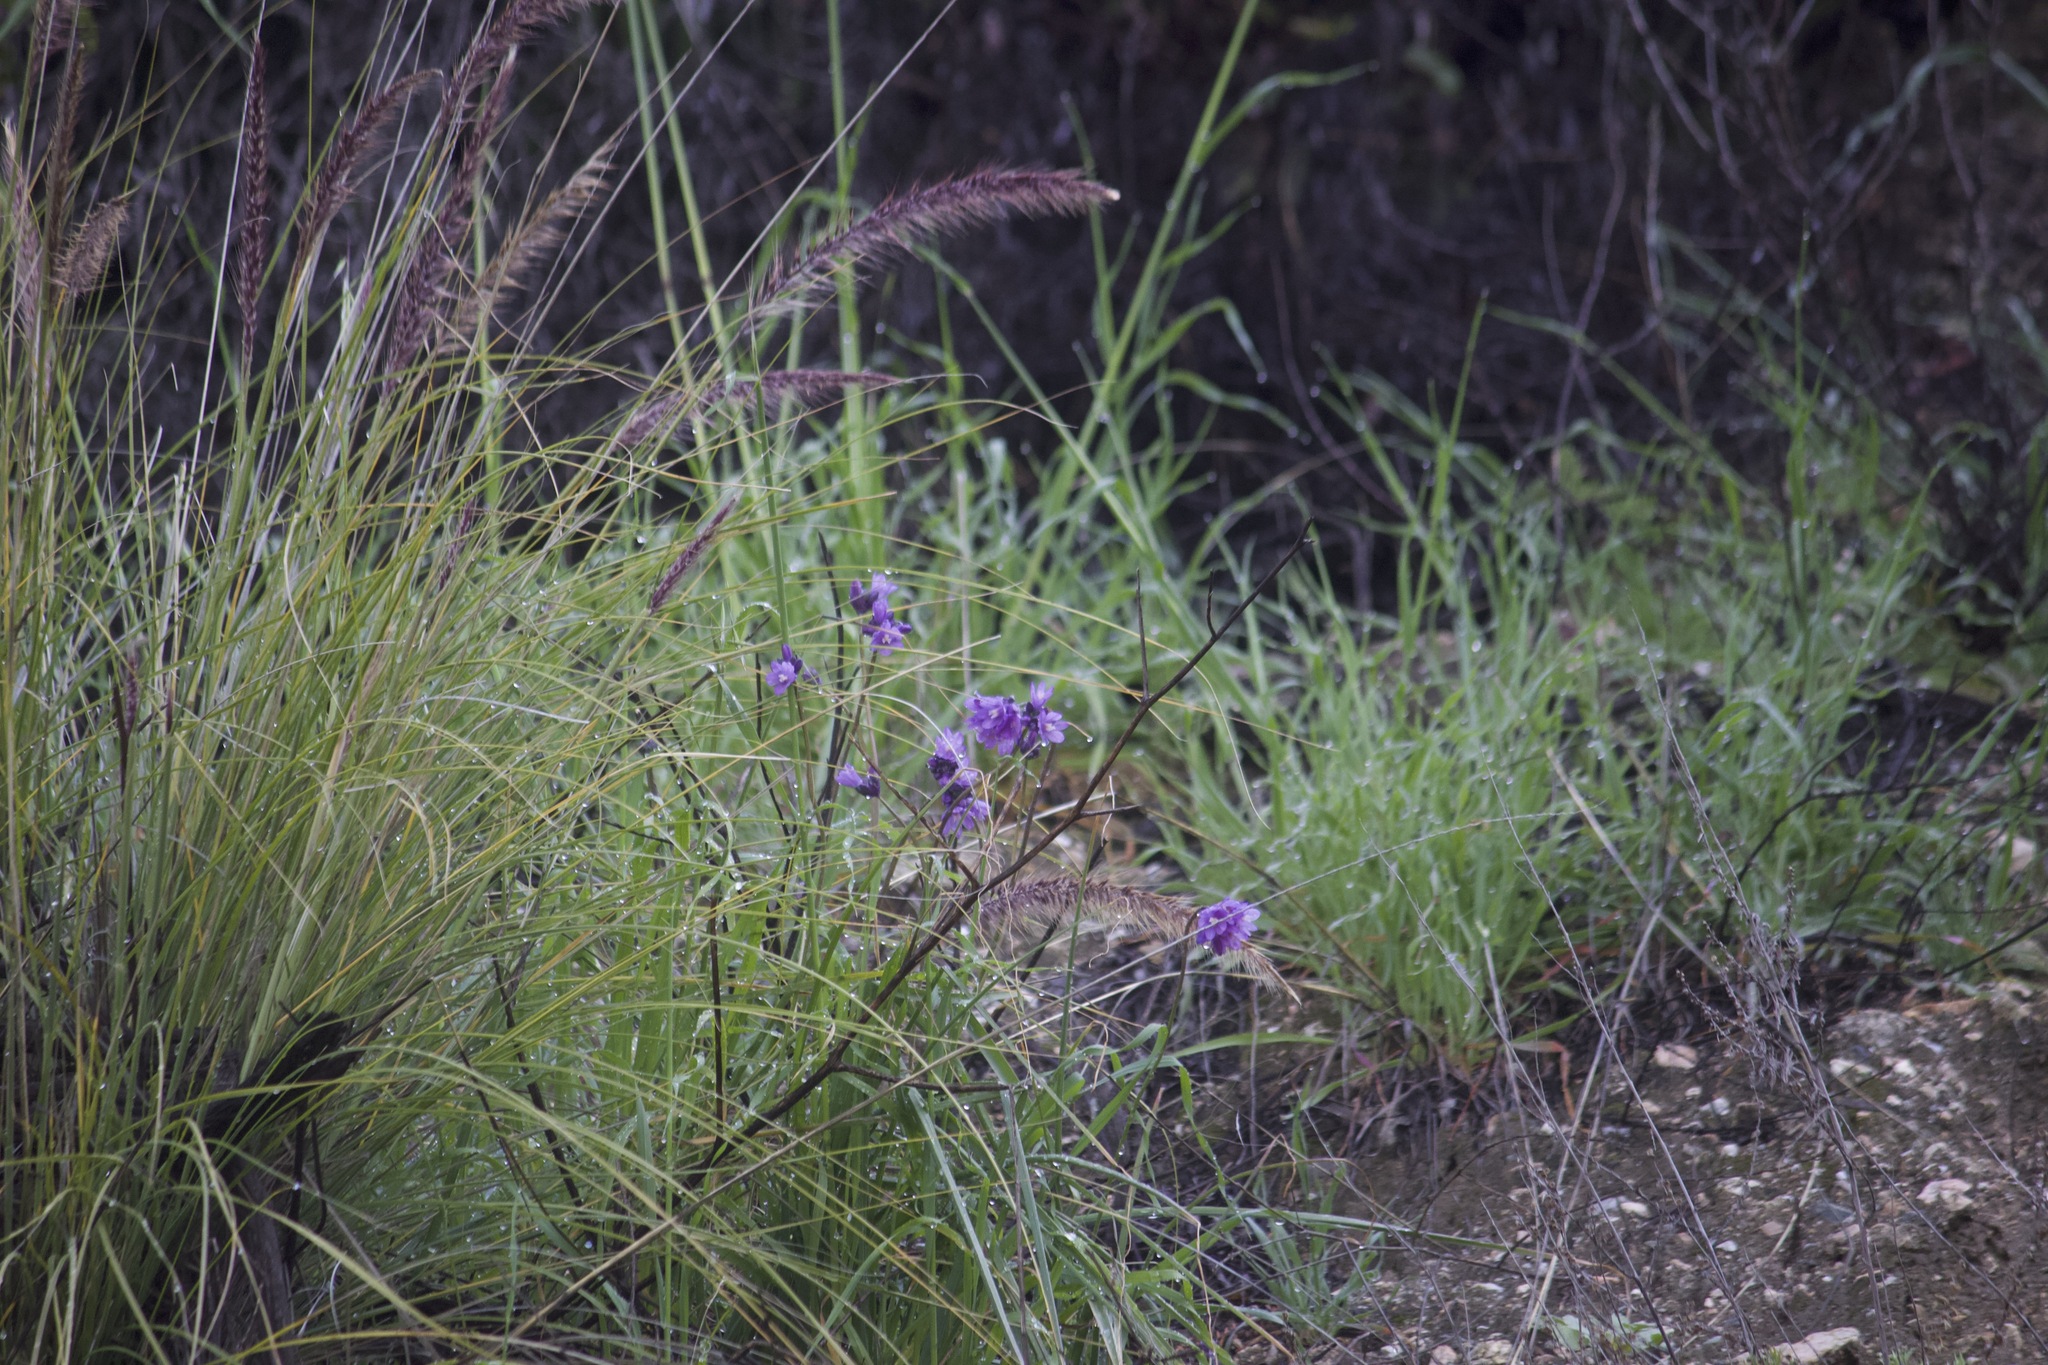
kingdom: Plantae
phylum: Tracheophyta
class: Liliopsida
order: Asparagales
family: Asparagaceae
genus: Dipterostemon
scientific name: Dipterostemon capitatus
